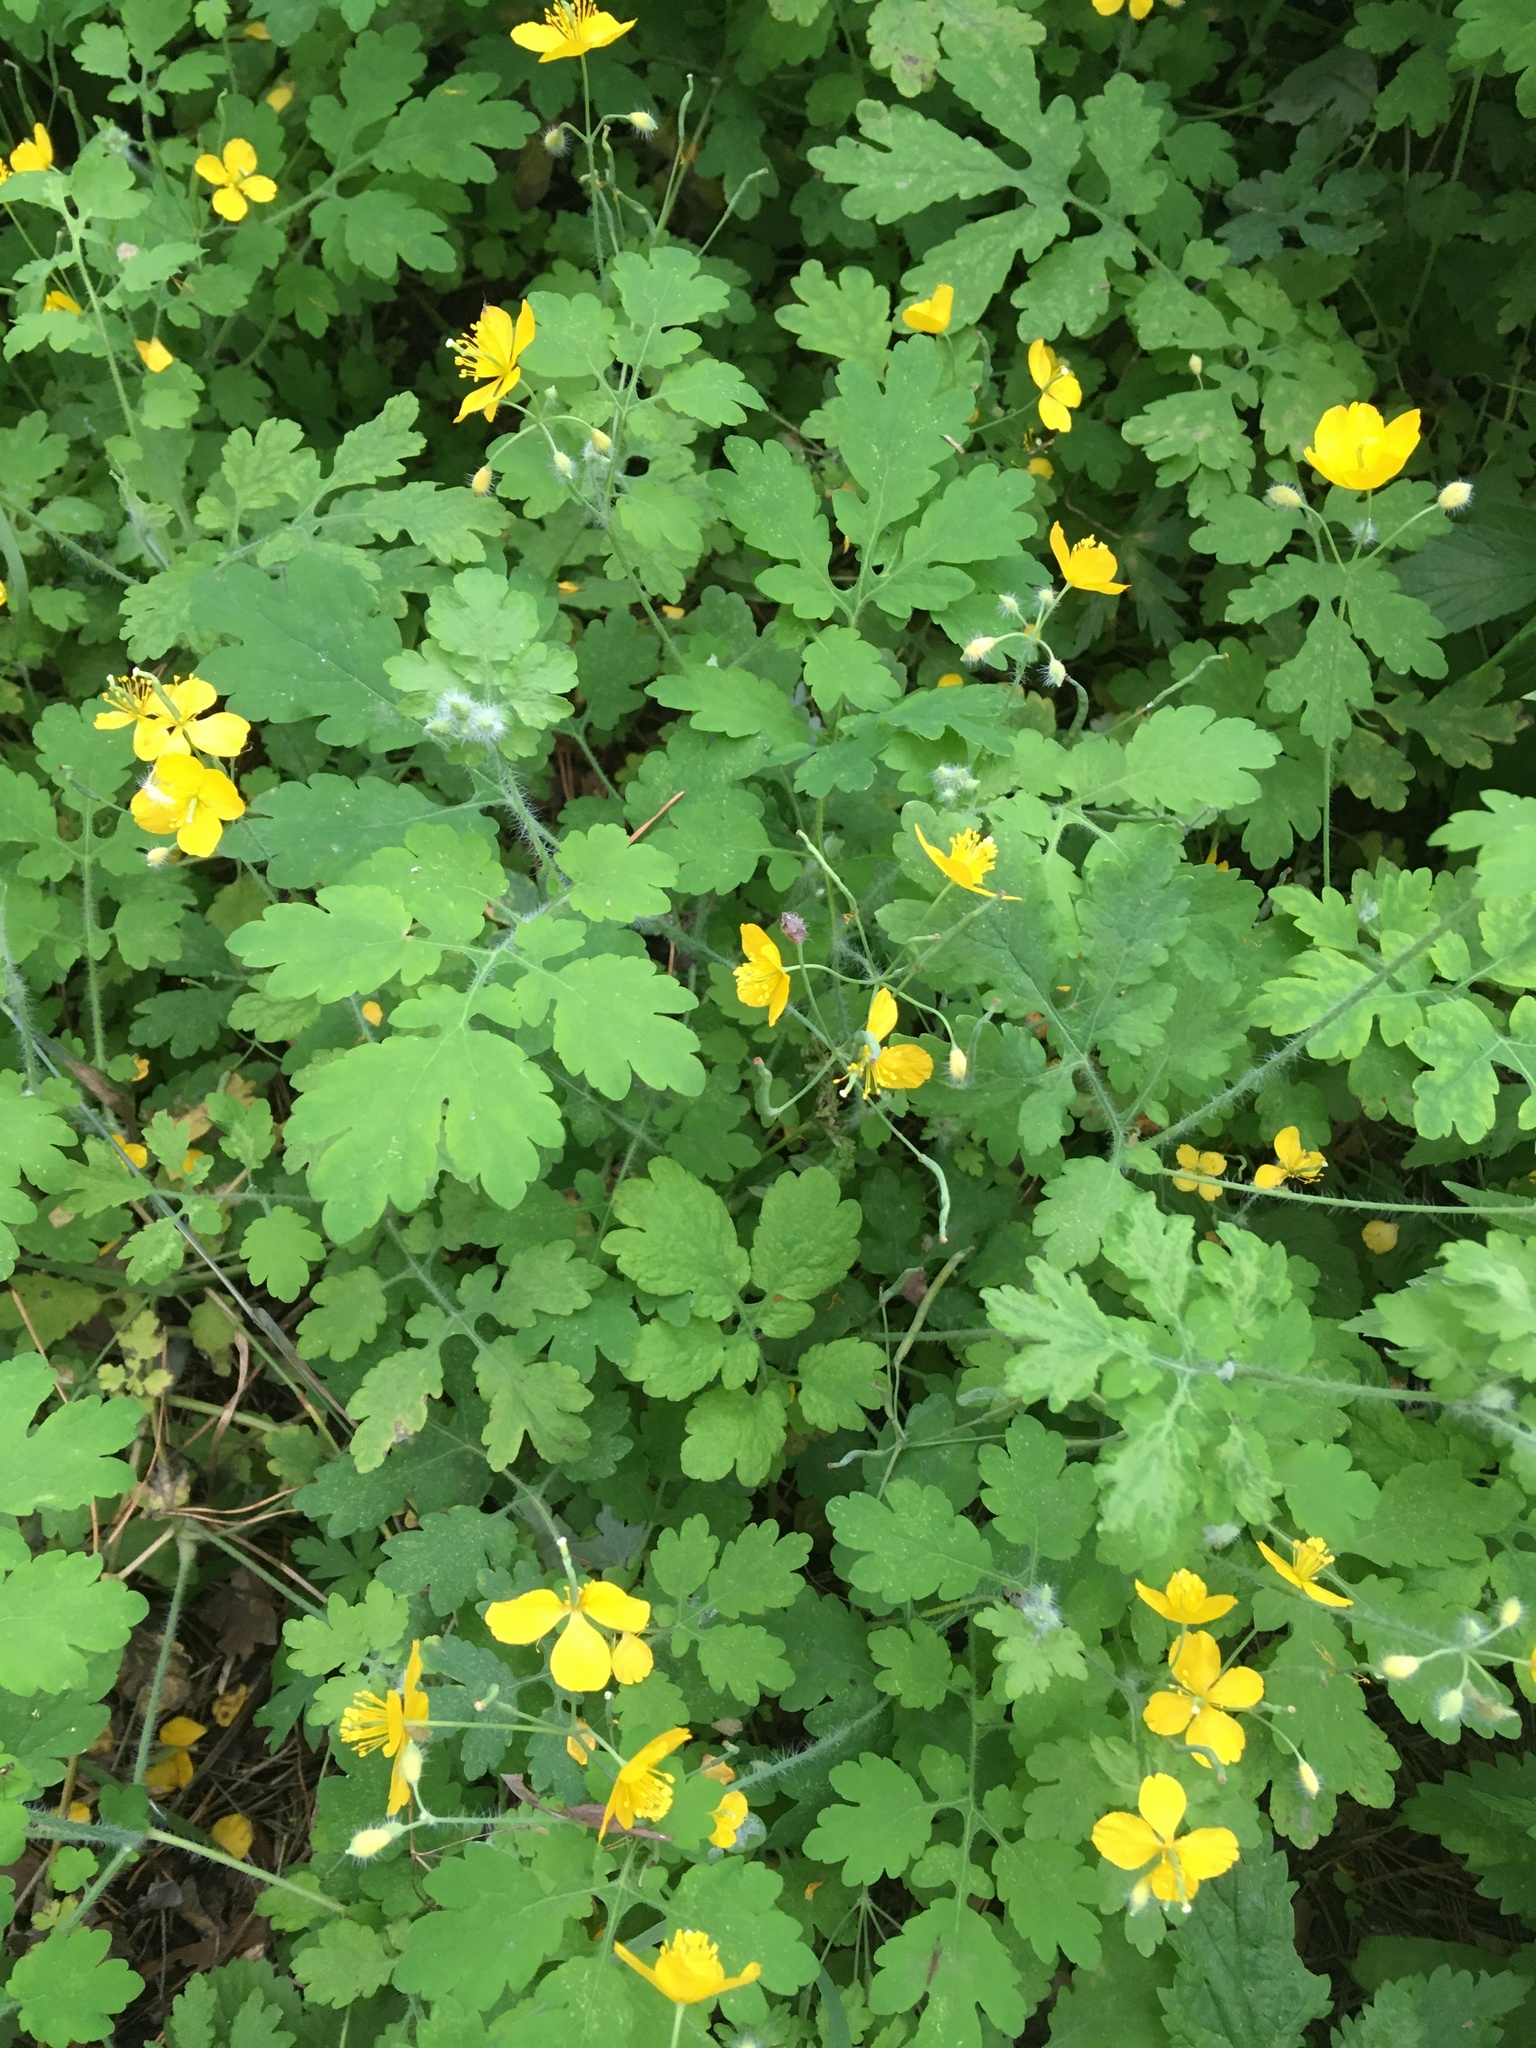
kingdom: Plantae
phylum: Tracheophyta
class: Magnoliopsida
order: Ranunculales
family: Papaveraceae
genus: Chelidonium
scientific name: Chelidonium majus
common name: Greater celandine
